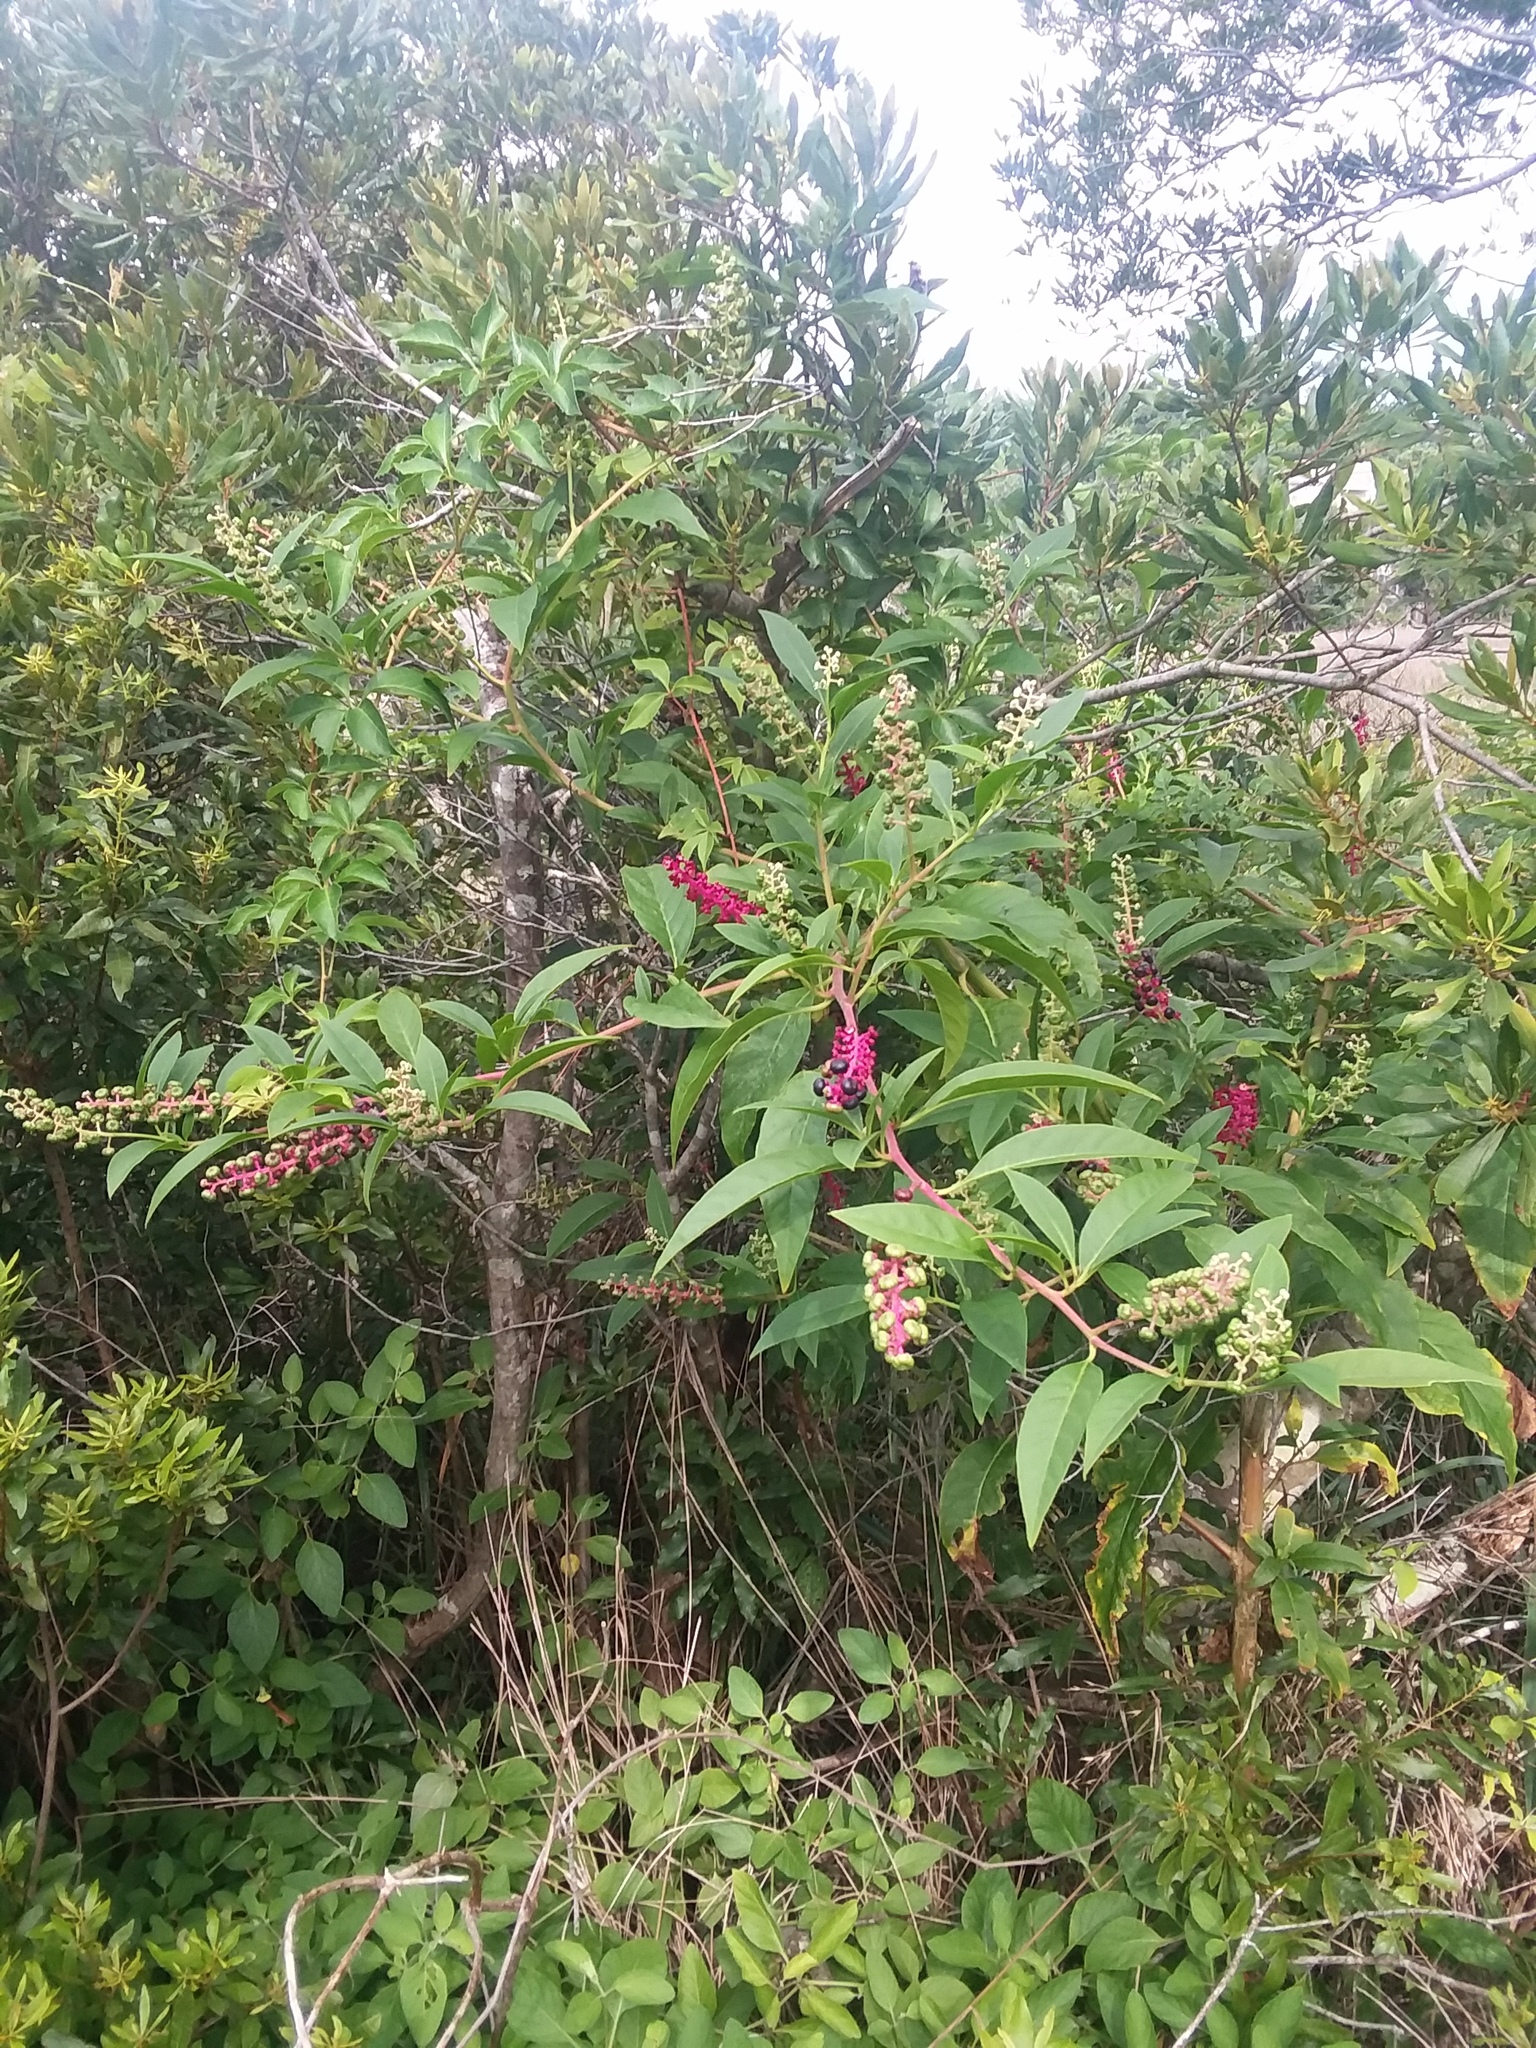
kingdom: Plantae
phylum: Tracheophyta
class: Magnoliopsida
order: Caryophyllales
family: Phytolaccaceae
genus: Phytolacca
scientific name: Phytolacca americana
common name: American pokeweed
